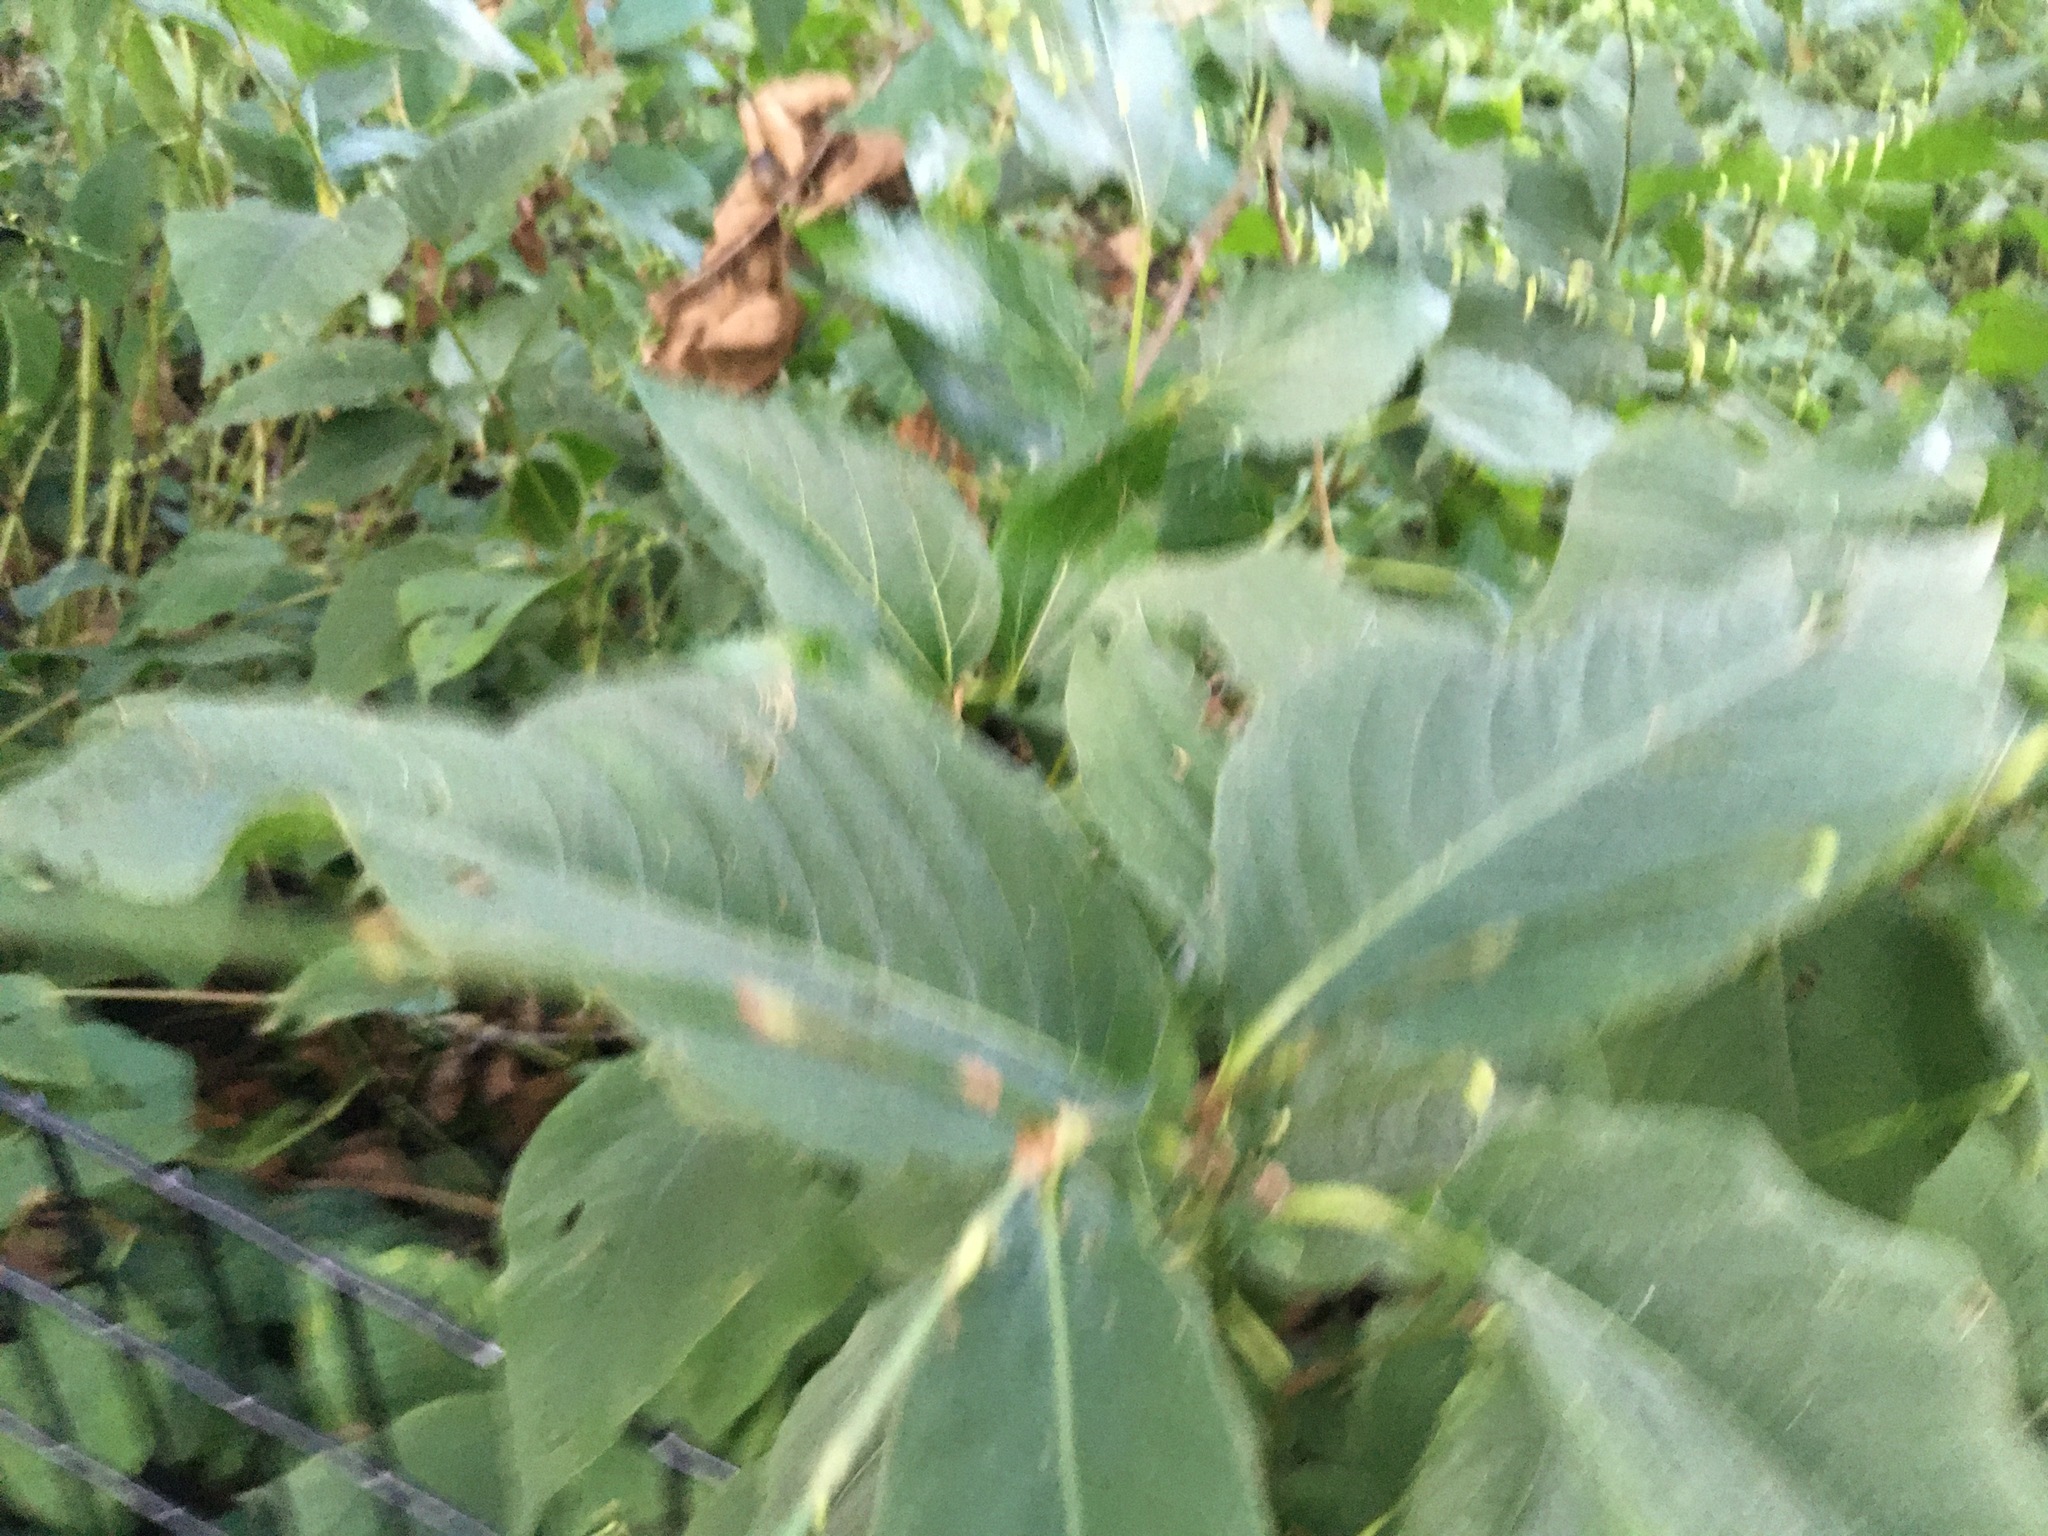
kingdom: Plantae
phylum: Tracheophyta
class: Magnoliopsida
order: Caryophyllales
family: Polygonaceae
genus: Persicaria
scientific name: Persicaria virginiana
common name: Jumpseed
